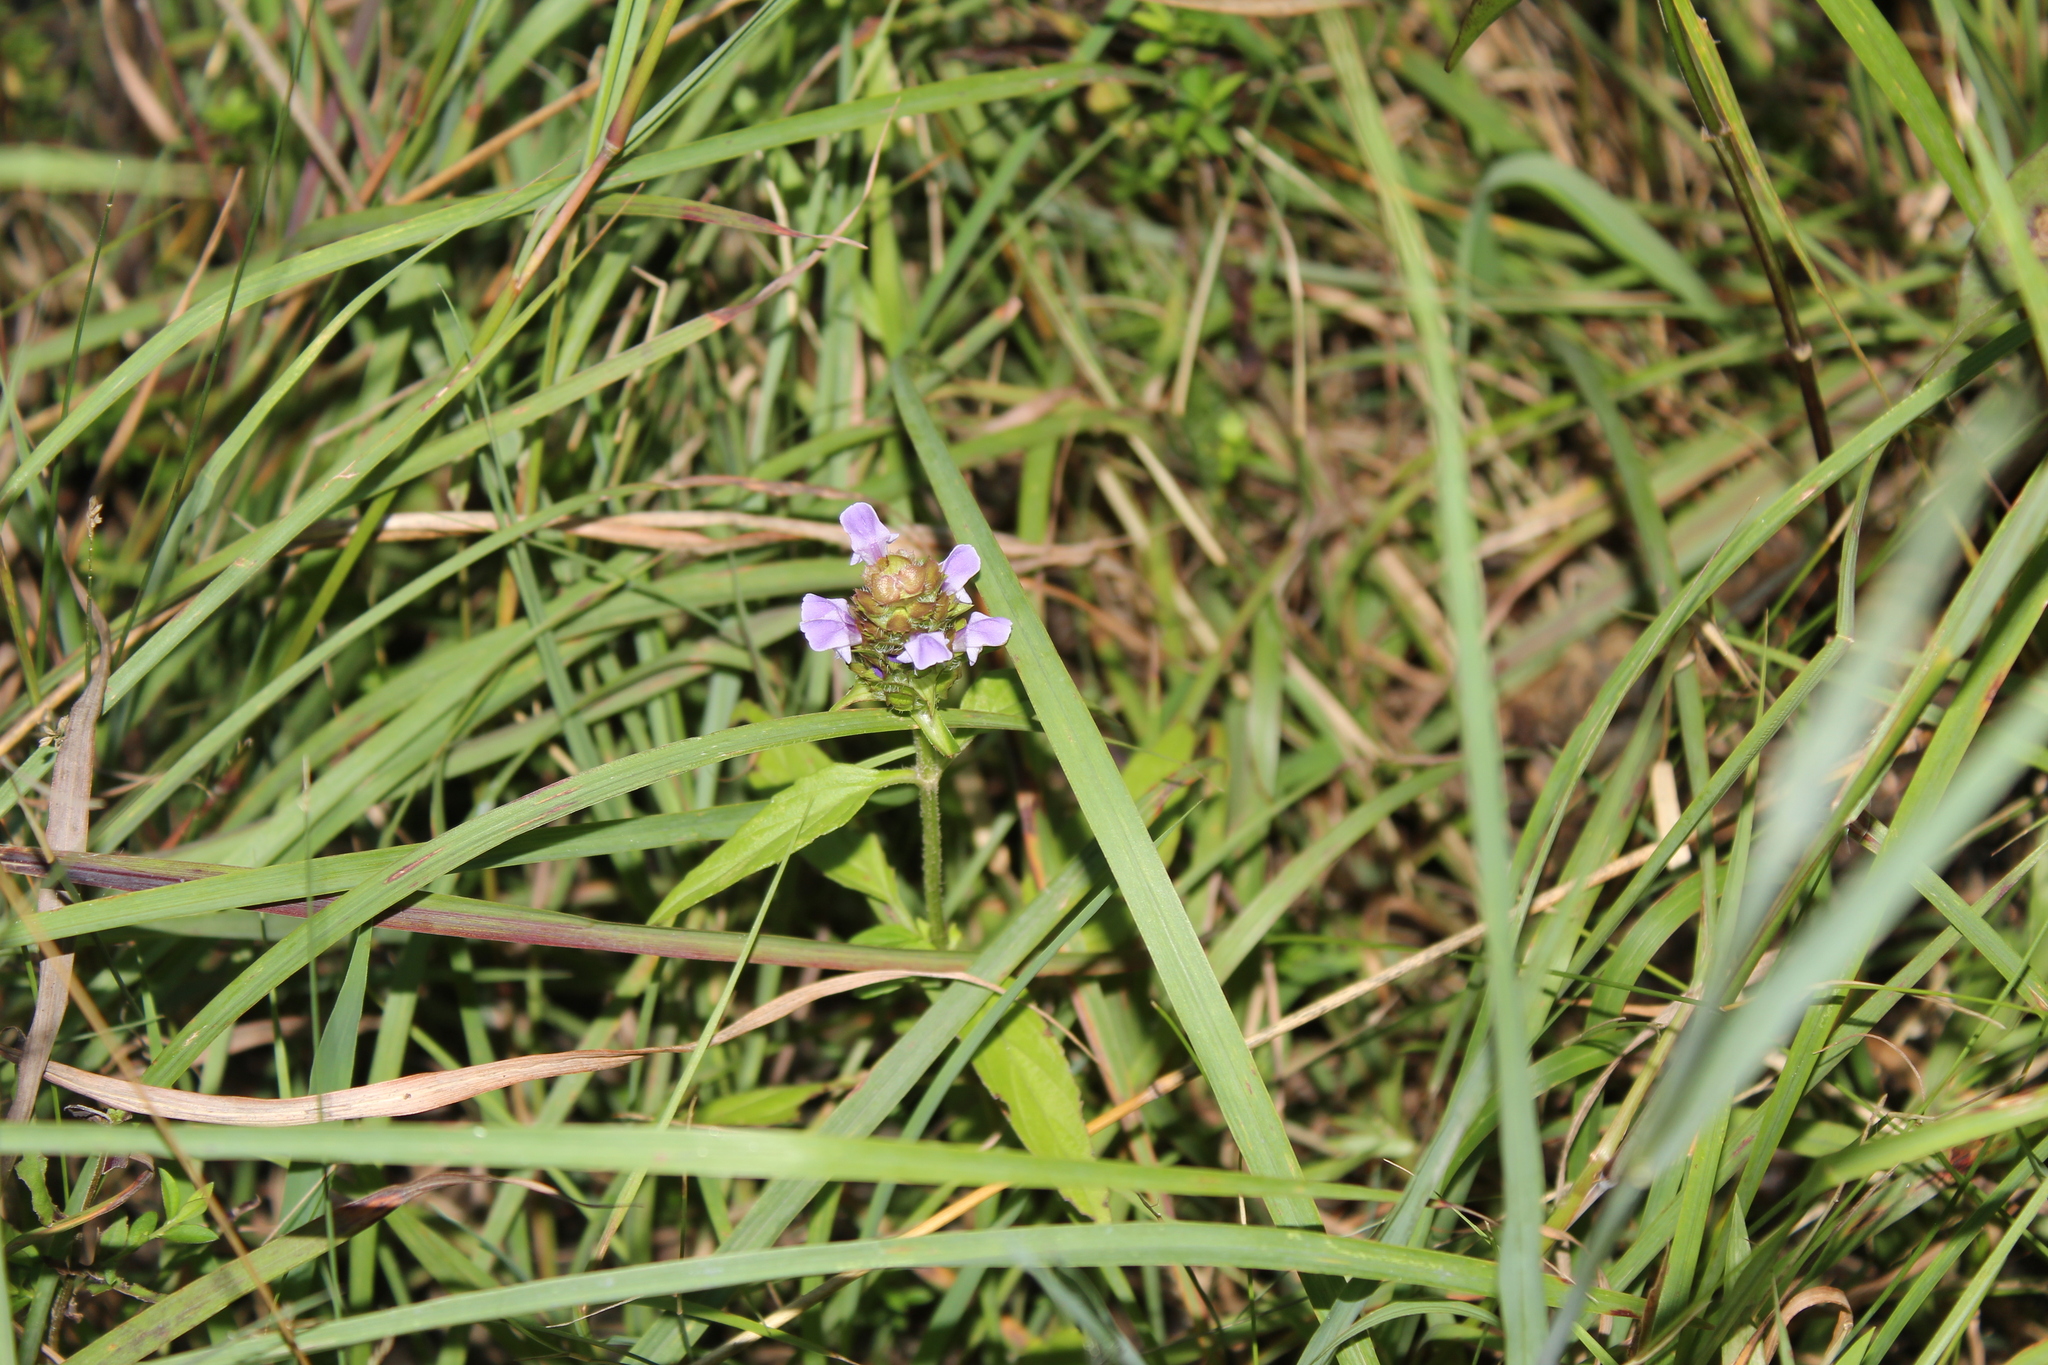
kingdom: Plantae
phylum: Tracheophyta
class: Magnoliopsida
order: Lamiales
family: Lamiaceae
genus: Prunella
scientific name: Prunella vulgaris
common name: Heal-all
